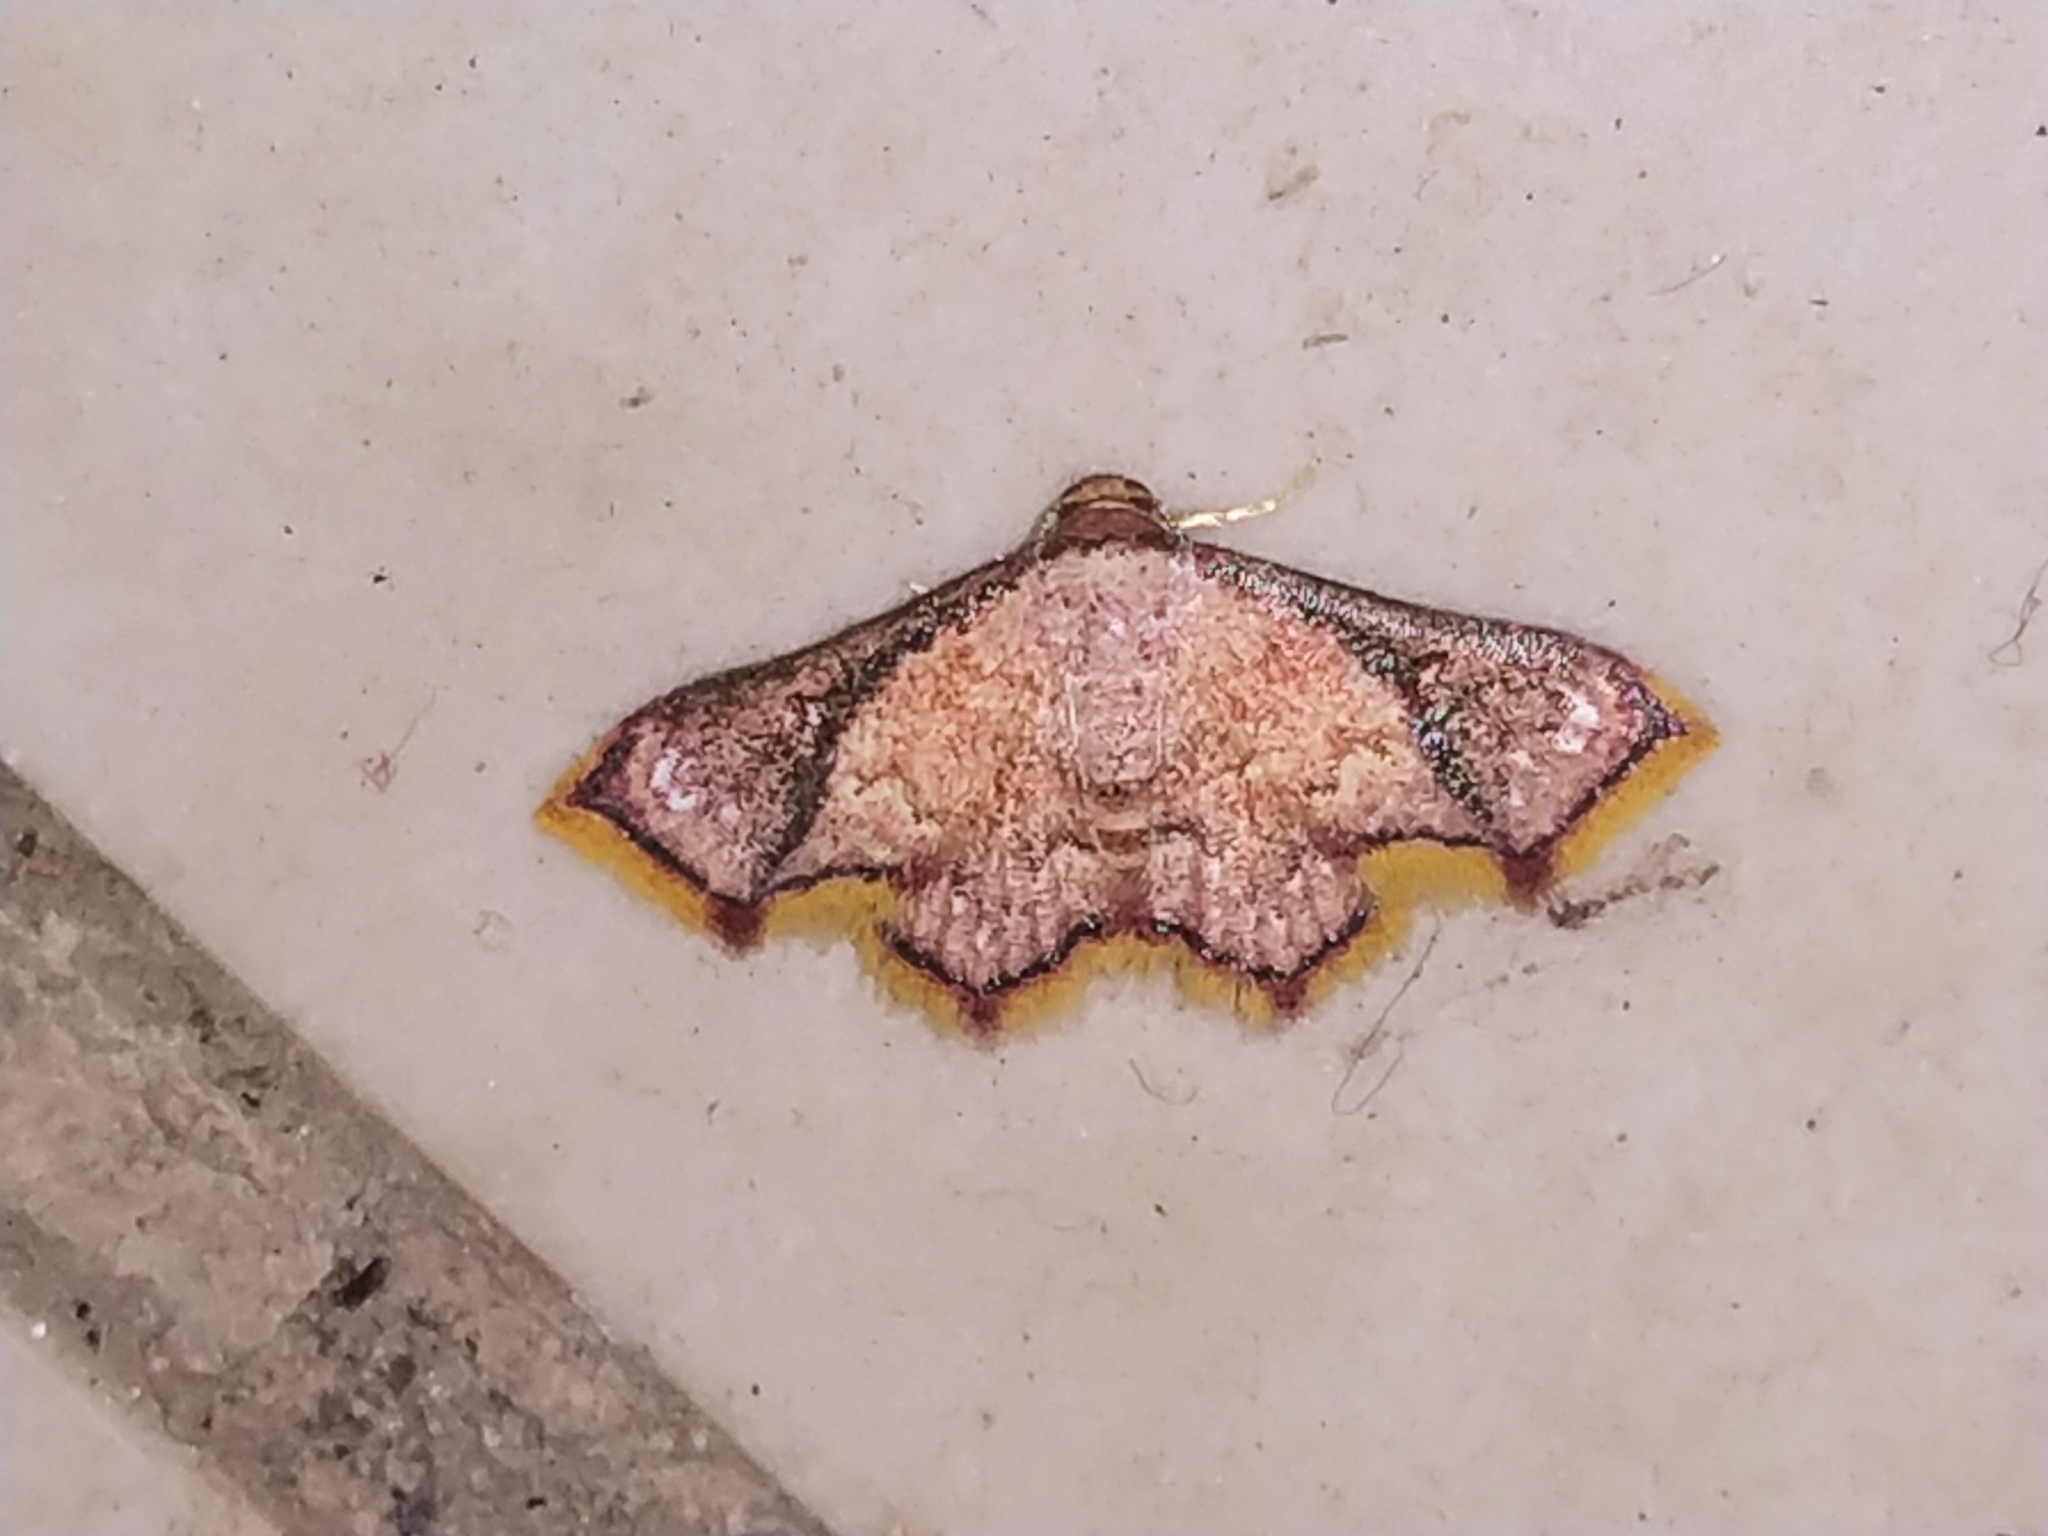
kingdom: Animalia
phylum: Arthropoda
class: Insecta
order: Lepidoptera
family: Noctuidae
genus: Enispa
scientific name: Enispa elataria
